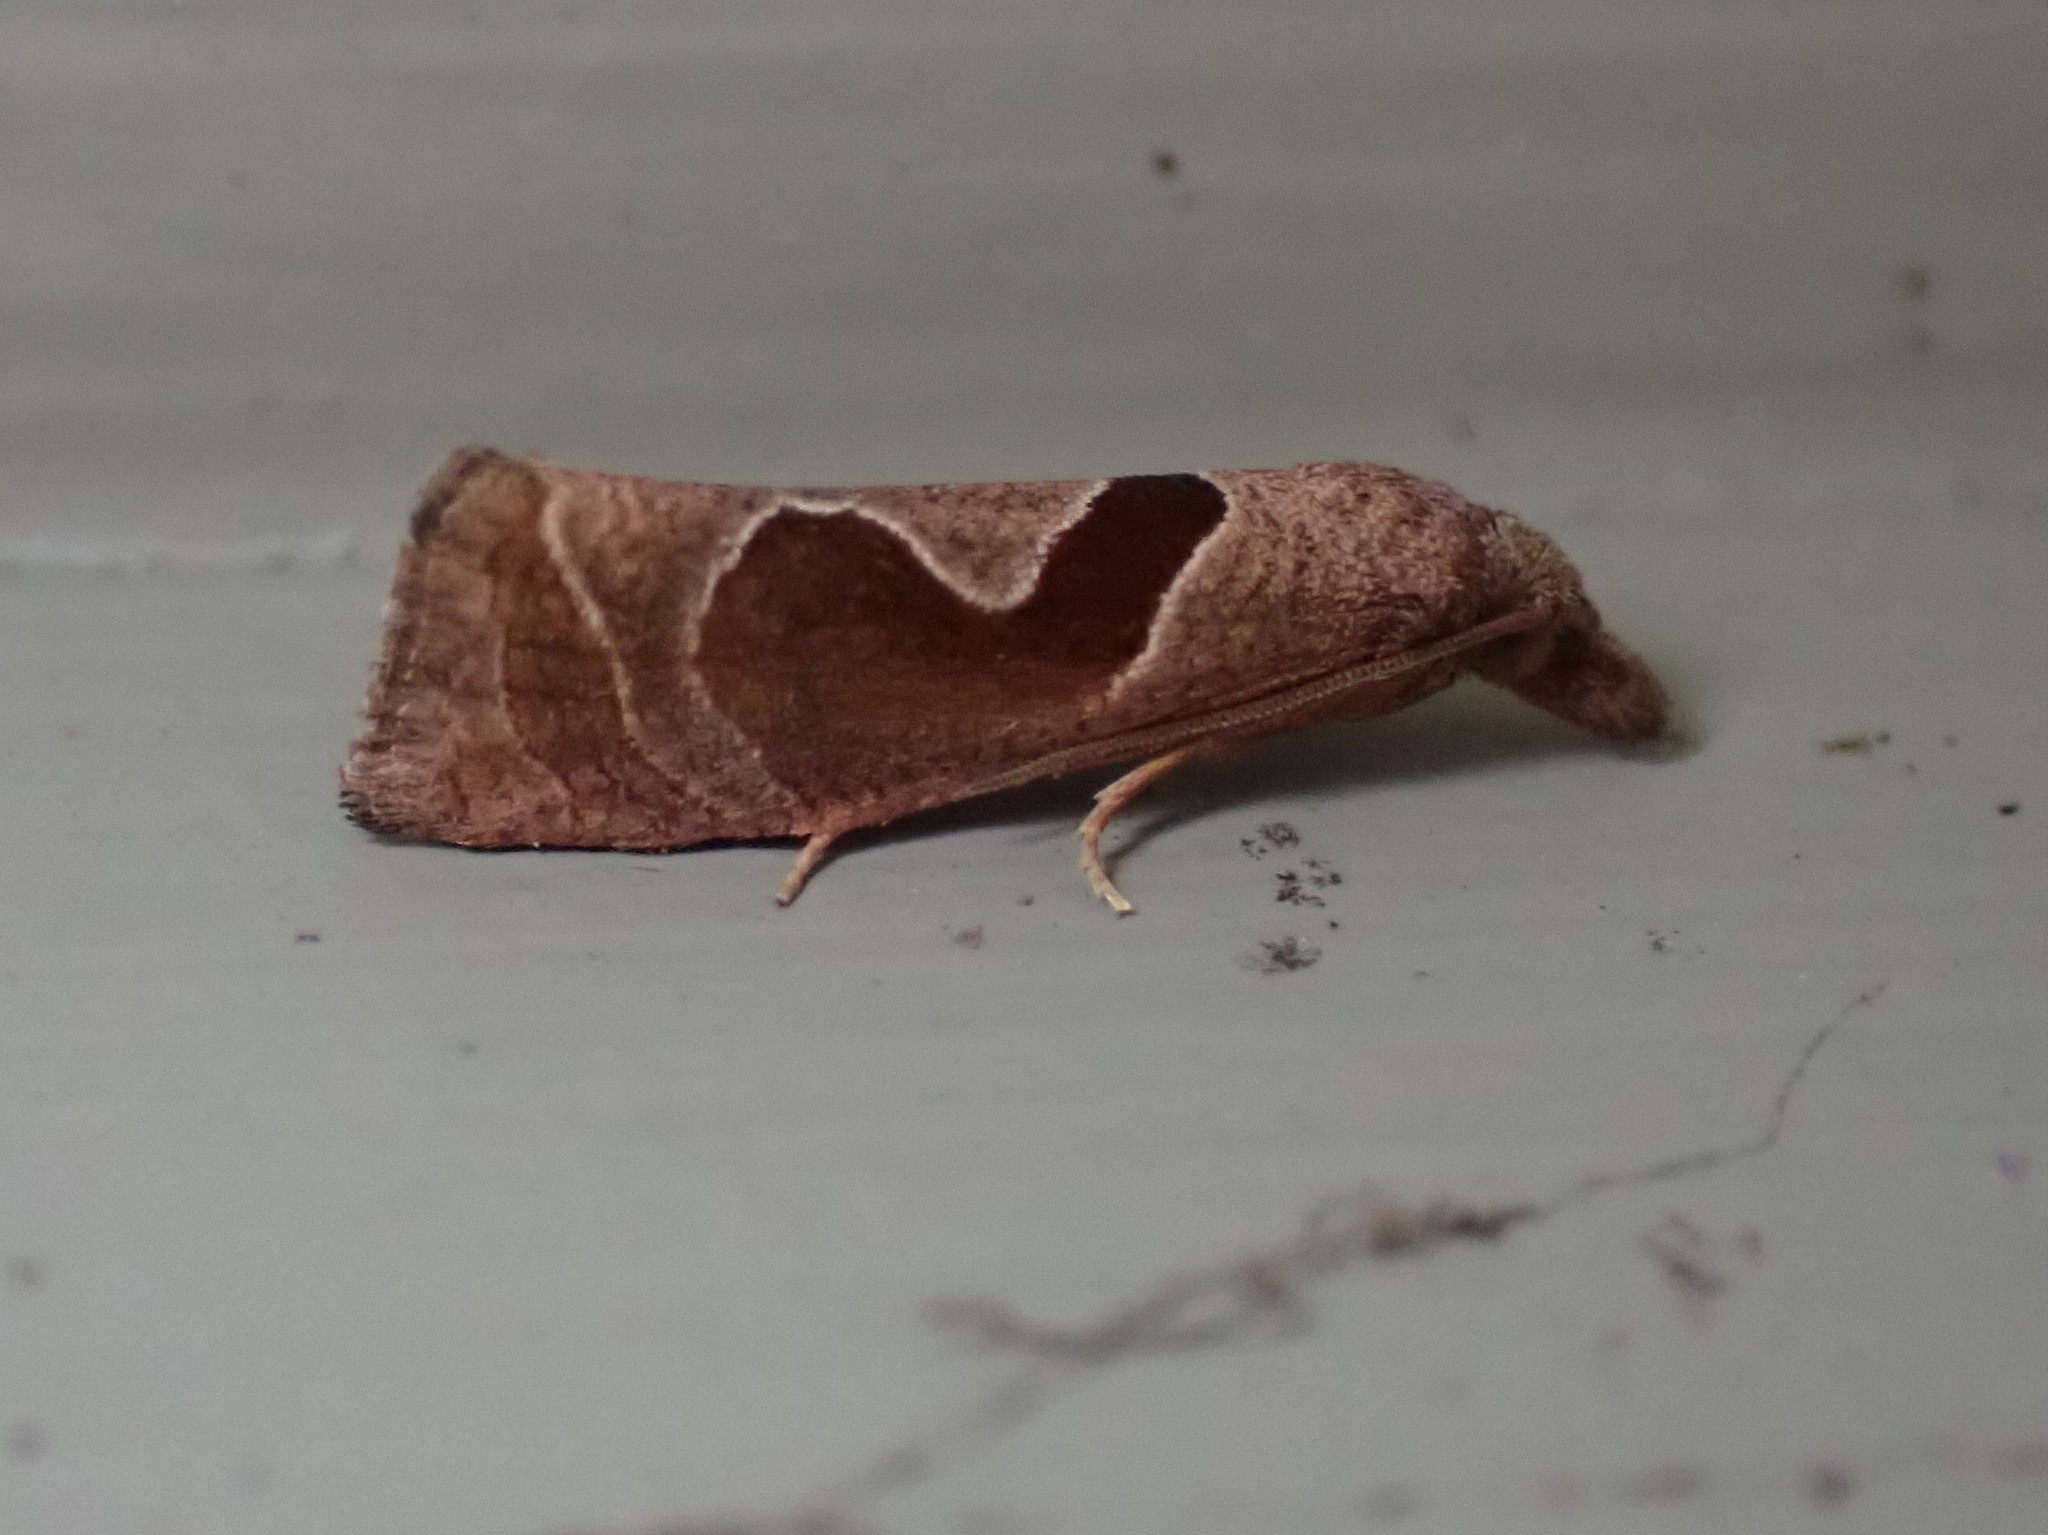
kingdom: Animalia
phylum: Arthropoda
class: Insecta
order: Lepidoptera
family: Tortricidae
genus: Pelochrista
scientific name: Pelochrista similiana
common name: Similar eucosma
